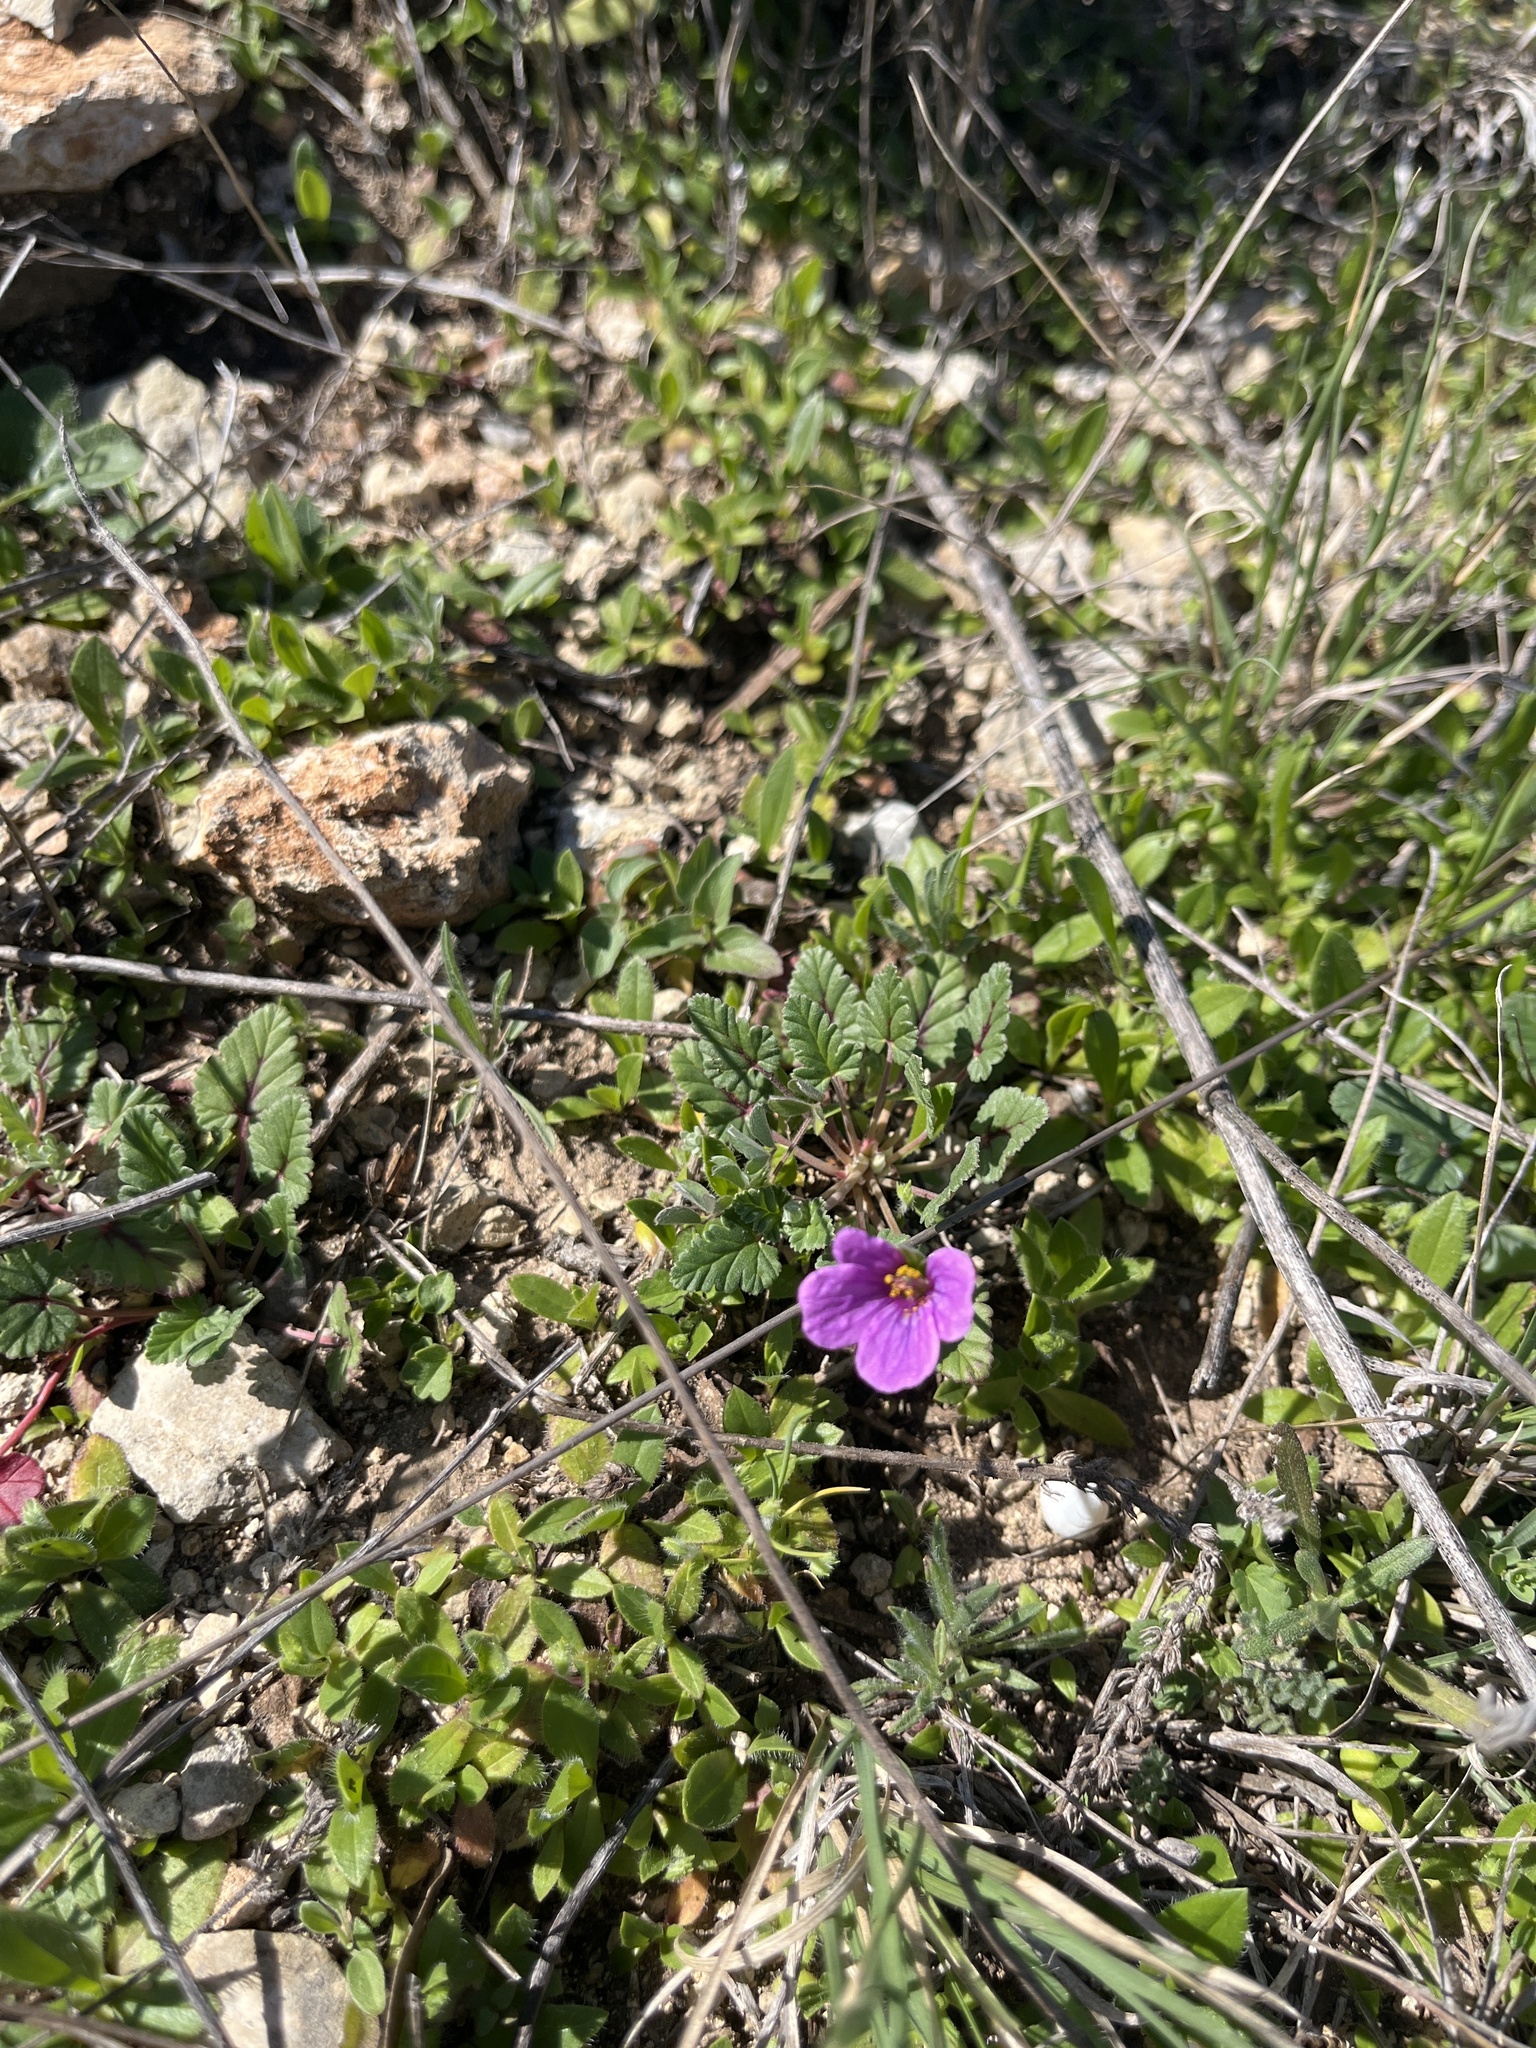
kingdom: Plantae
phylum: Tracheophyta
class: Magnoliopsida
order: Geraniales
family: Geraniaceae
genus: Erodium
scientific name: Erodium texanum
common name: Texas stork's-bill
